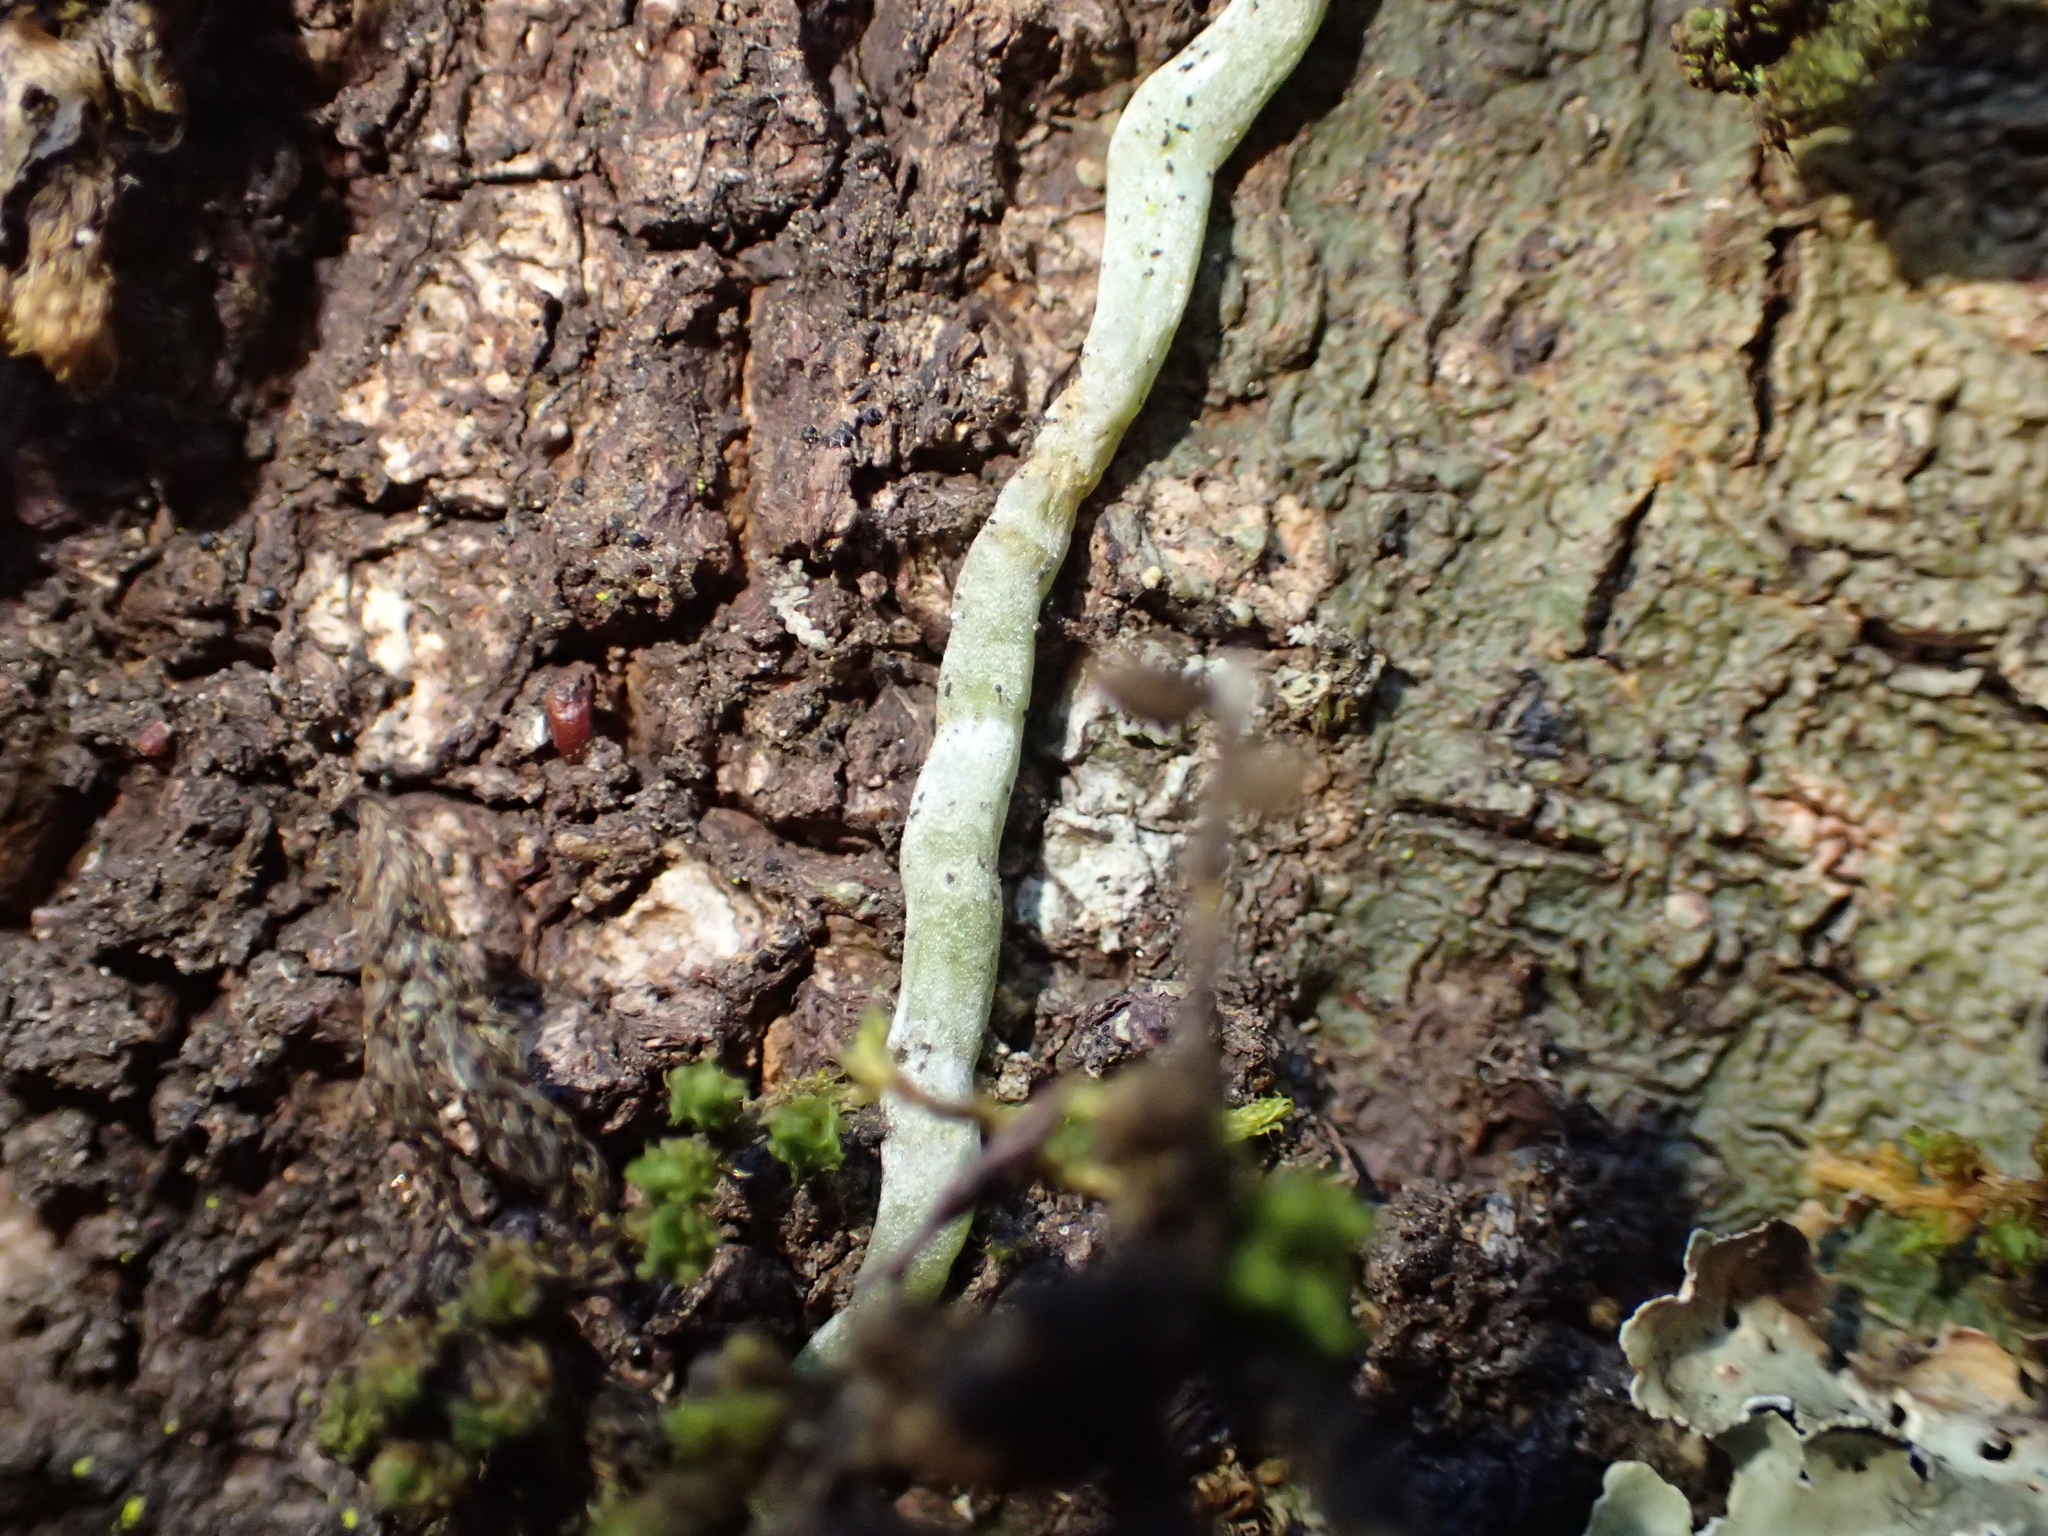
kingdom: Plantae
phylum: Tracheophyta
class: Liliopsida
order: Asparagales
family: Orchidaceae
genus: Drymoanthus
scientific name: Drymoanthus adversus
